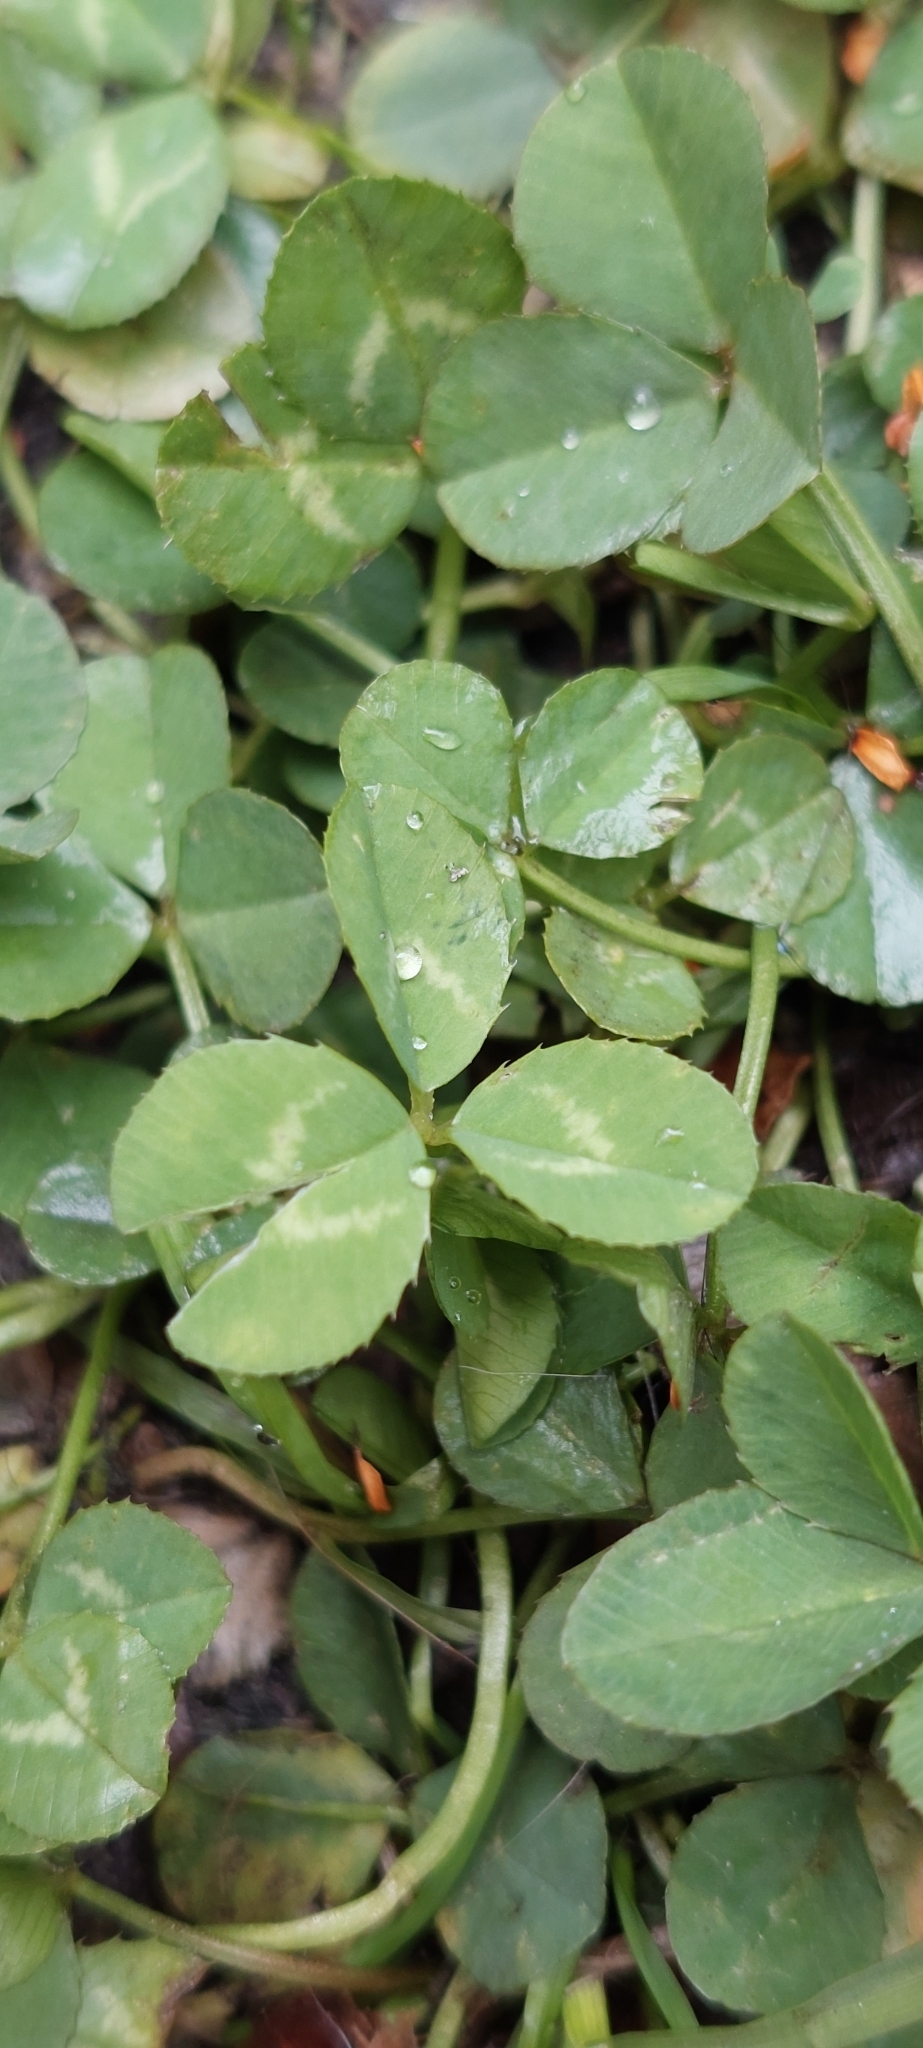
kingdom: Plantae
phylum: Tracheophyta
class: Magnoliopsida
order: Fabales
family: Fabaceae
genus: Trifolium
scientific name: Trifolium repens
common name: White clover
